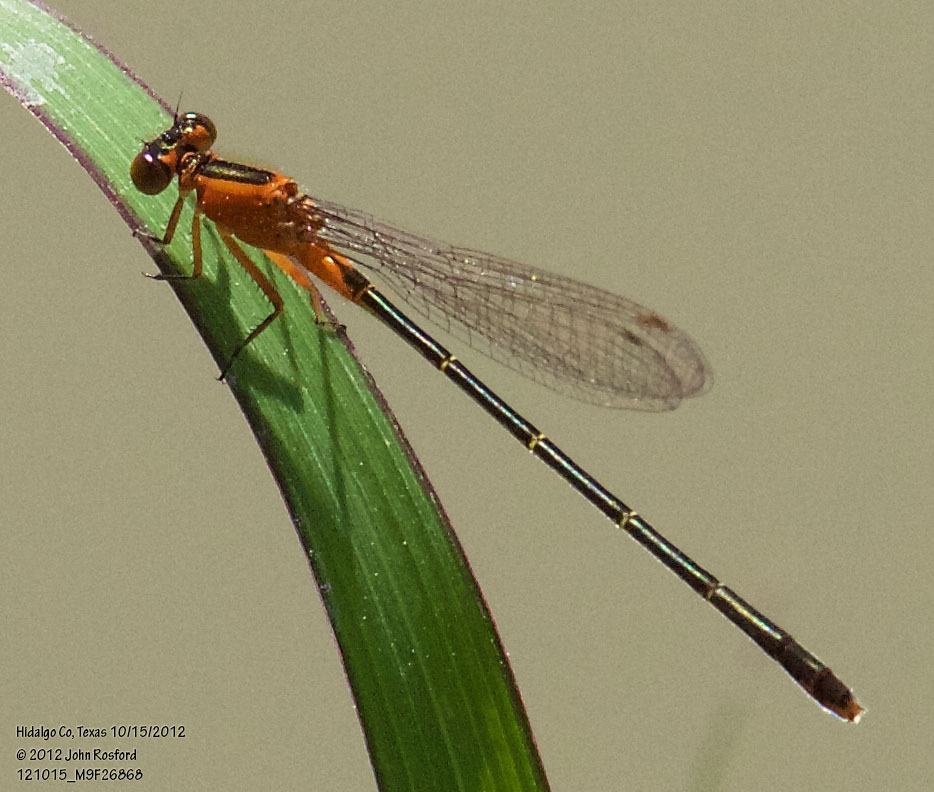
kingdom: Animalia
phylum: Arthropoda
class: Insecta
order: Odonata
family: Coenagrionidae
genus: Ischnura
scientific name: Ischnura ramburii
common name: Rambur's forktail
